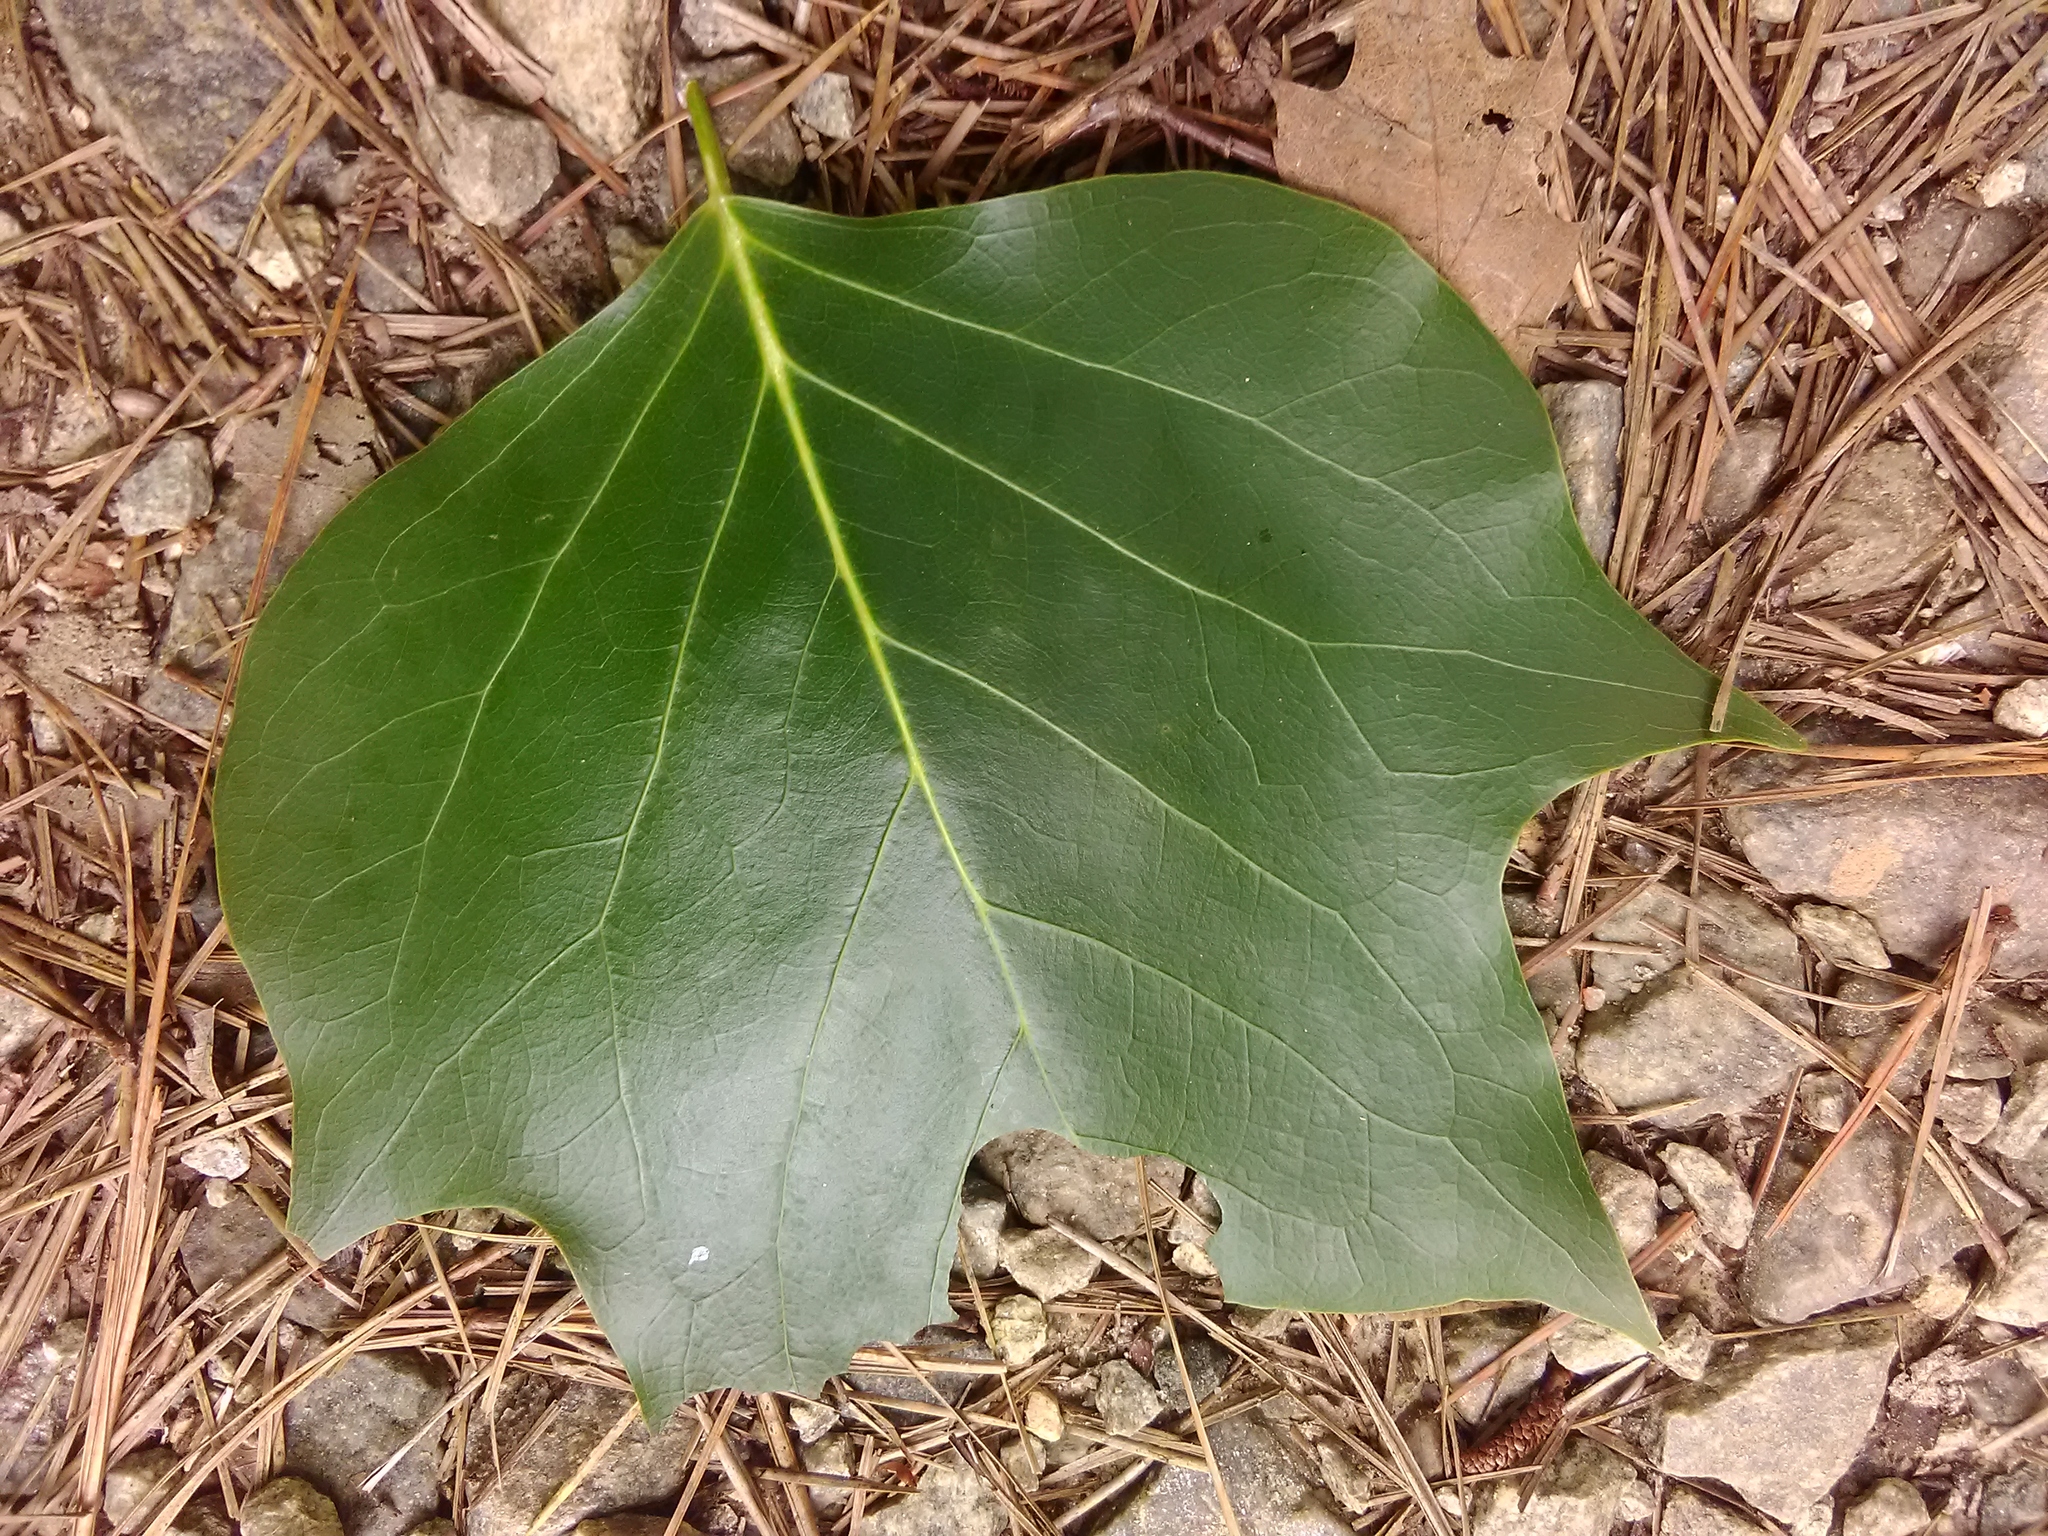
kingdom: Plantae
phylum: Tracheophyta
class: Magnoliopsida
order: Magnoliales
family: Magnoliaceae
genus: Liriodendron
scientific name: Liriodendron tulipifera
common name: Tulip tree
